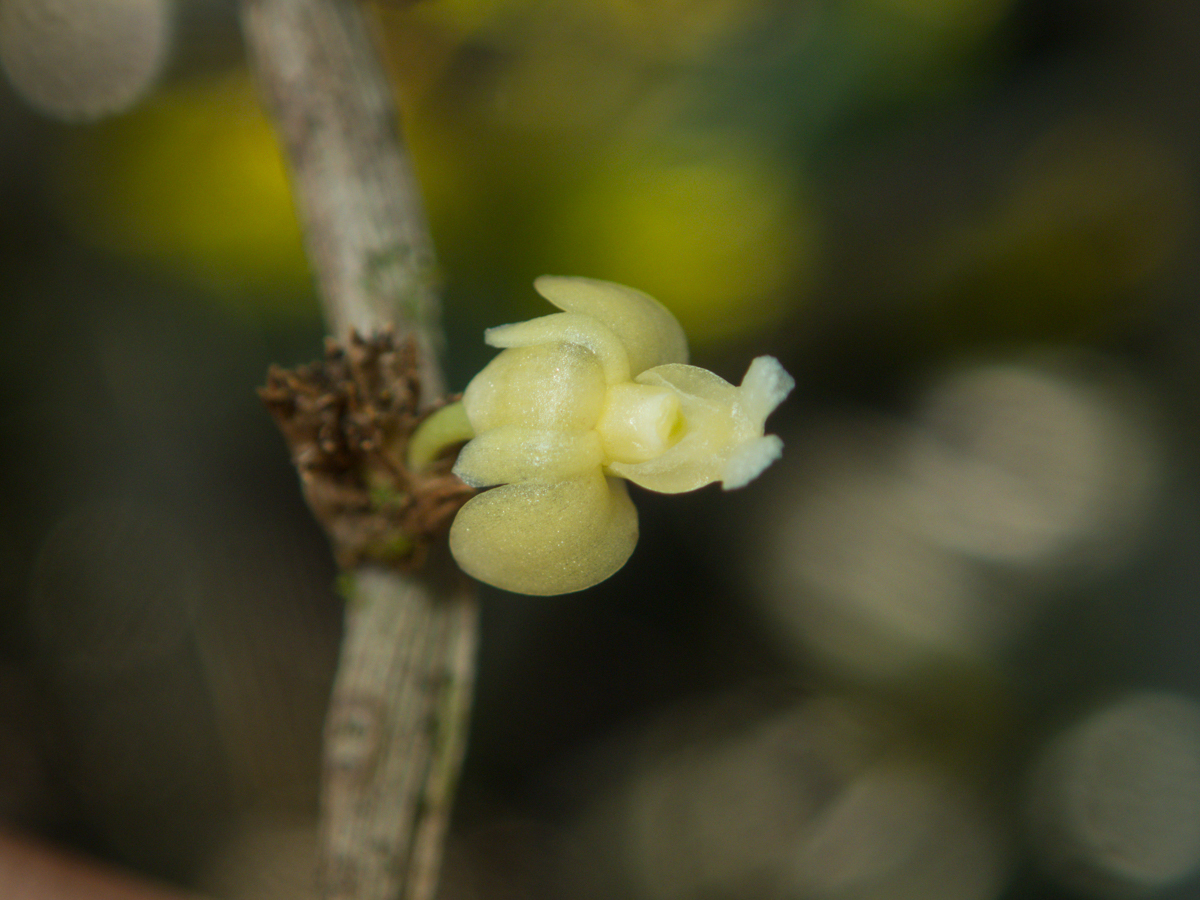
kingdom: Plantae
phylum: Tracheophyta
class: Liliopsida
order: Asparagales
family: Orchidaceae
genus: Dendrobium
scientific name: Dendrobium aloifolium
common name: Aloe-like dendrobium
